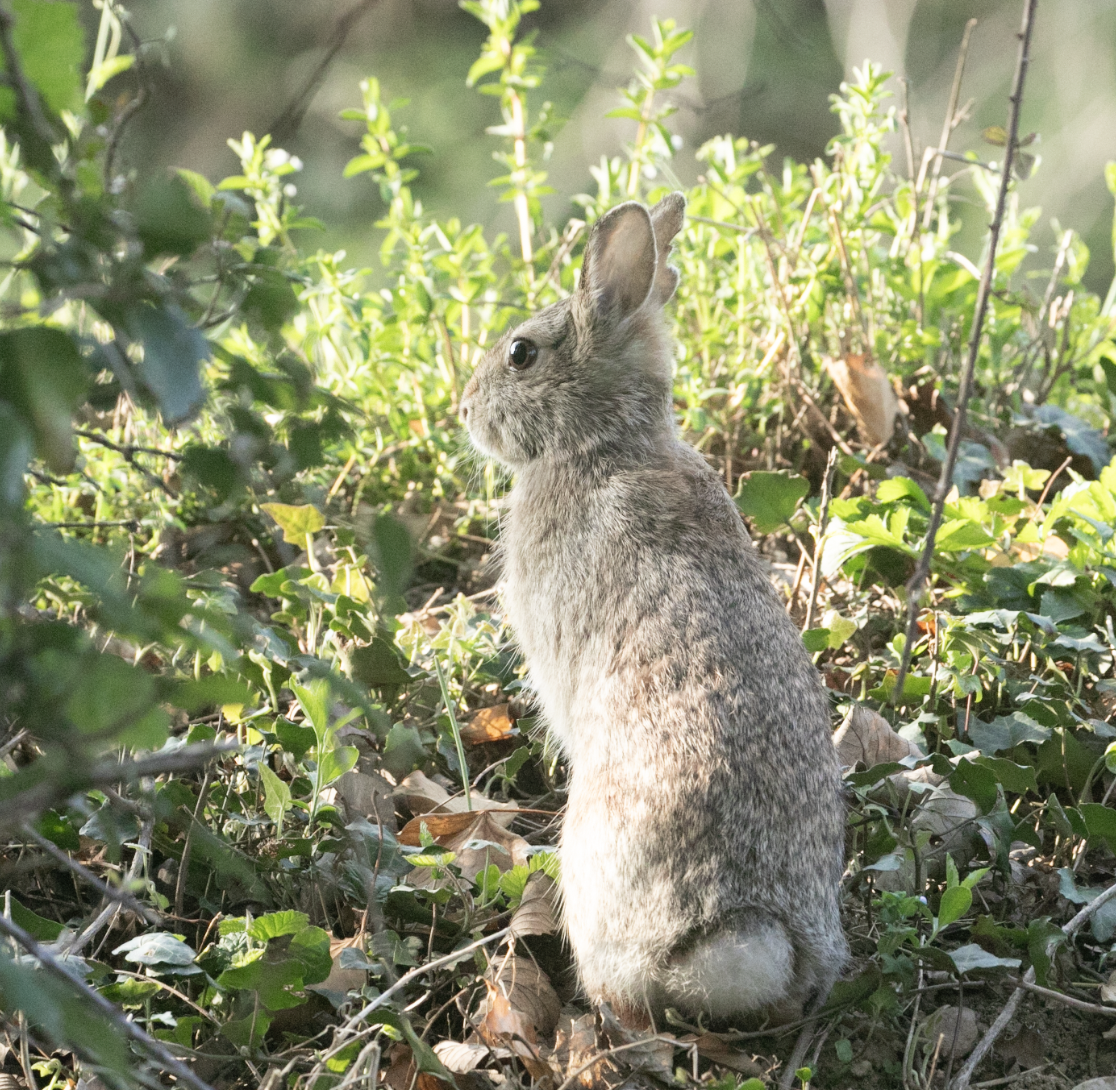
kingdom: Animalia
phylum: Chordata
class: Mammalia
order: Lagomorpha
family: Leporidae
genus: Sylvilagus
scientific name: Sylvilagus floridanus
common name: Eastern cottontail
